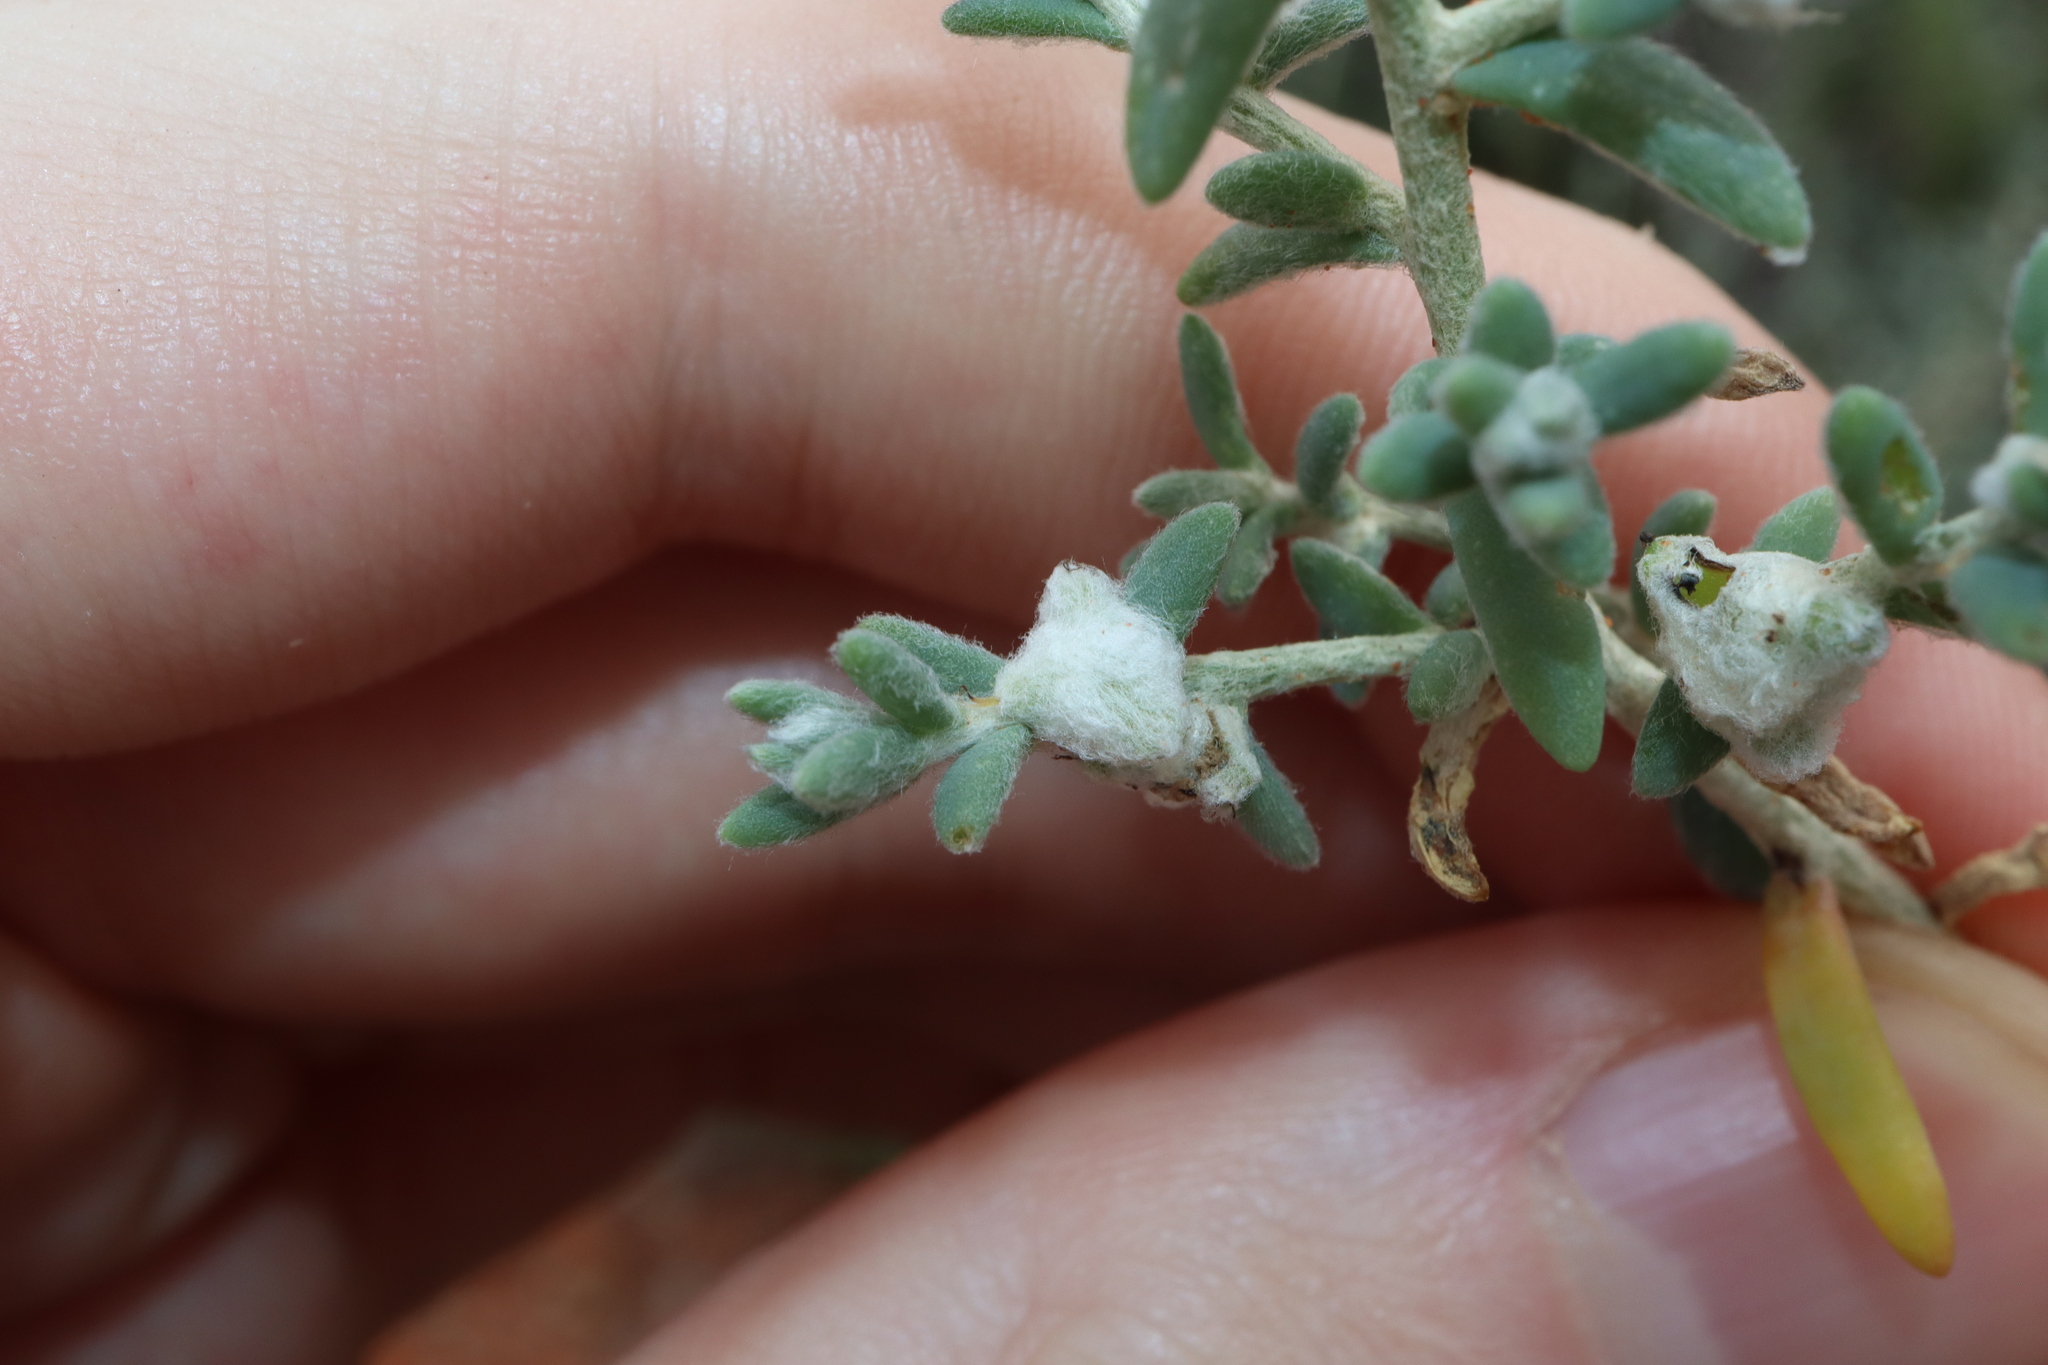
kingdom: Plantae
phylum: Tracheophyta
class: Magnoliopsida
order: Caryophyllales
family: Amaranthaceae
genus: Dissocarpus
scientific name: Dissocarpus biflorus
